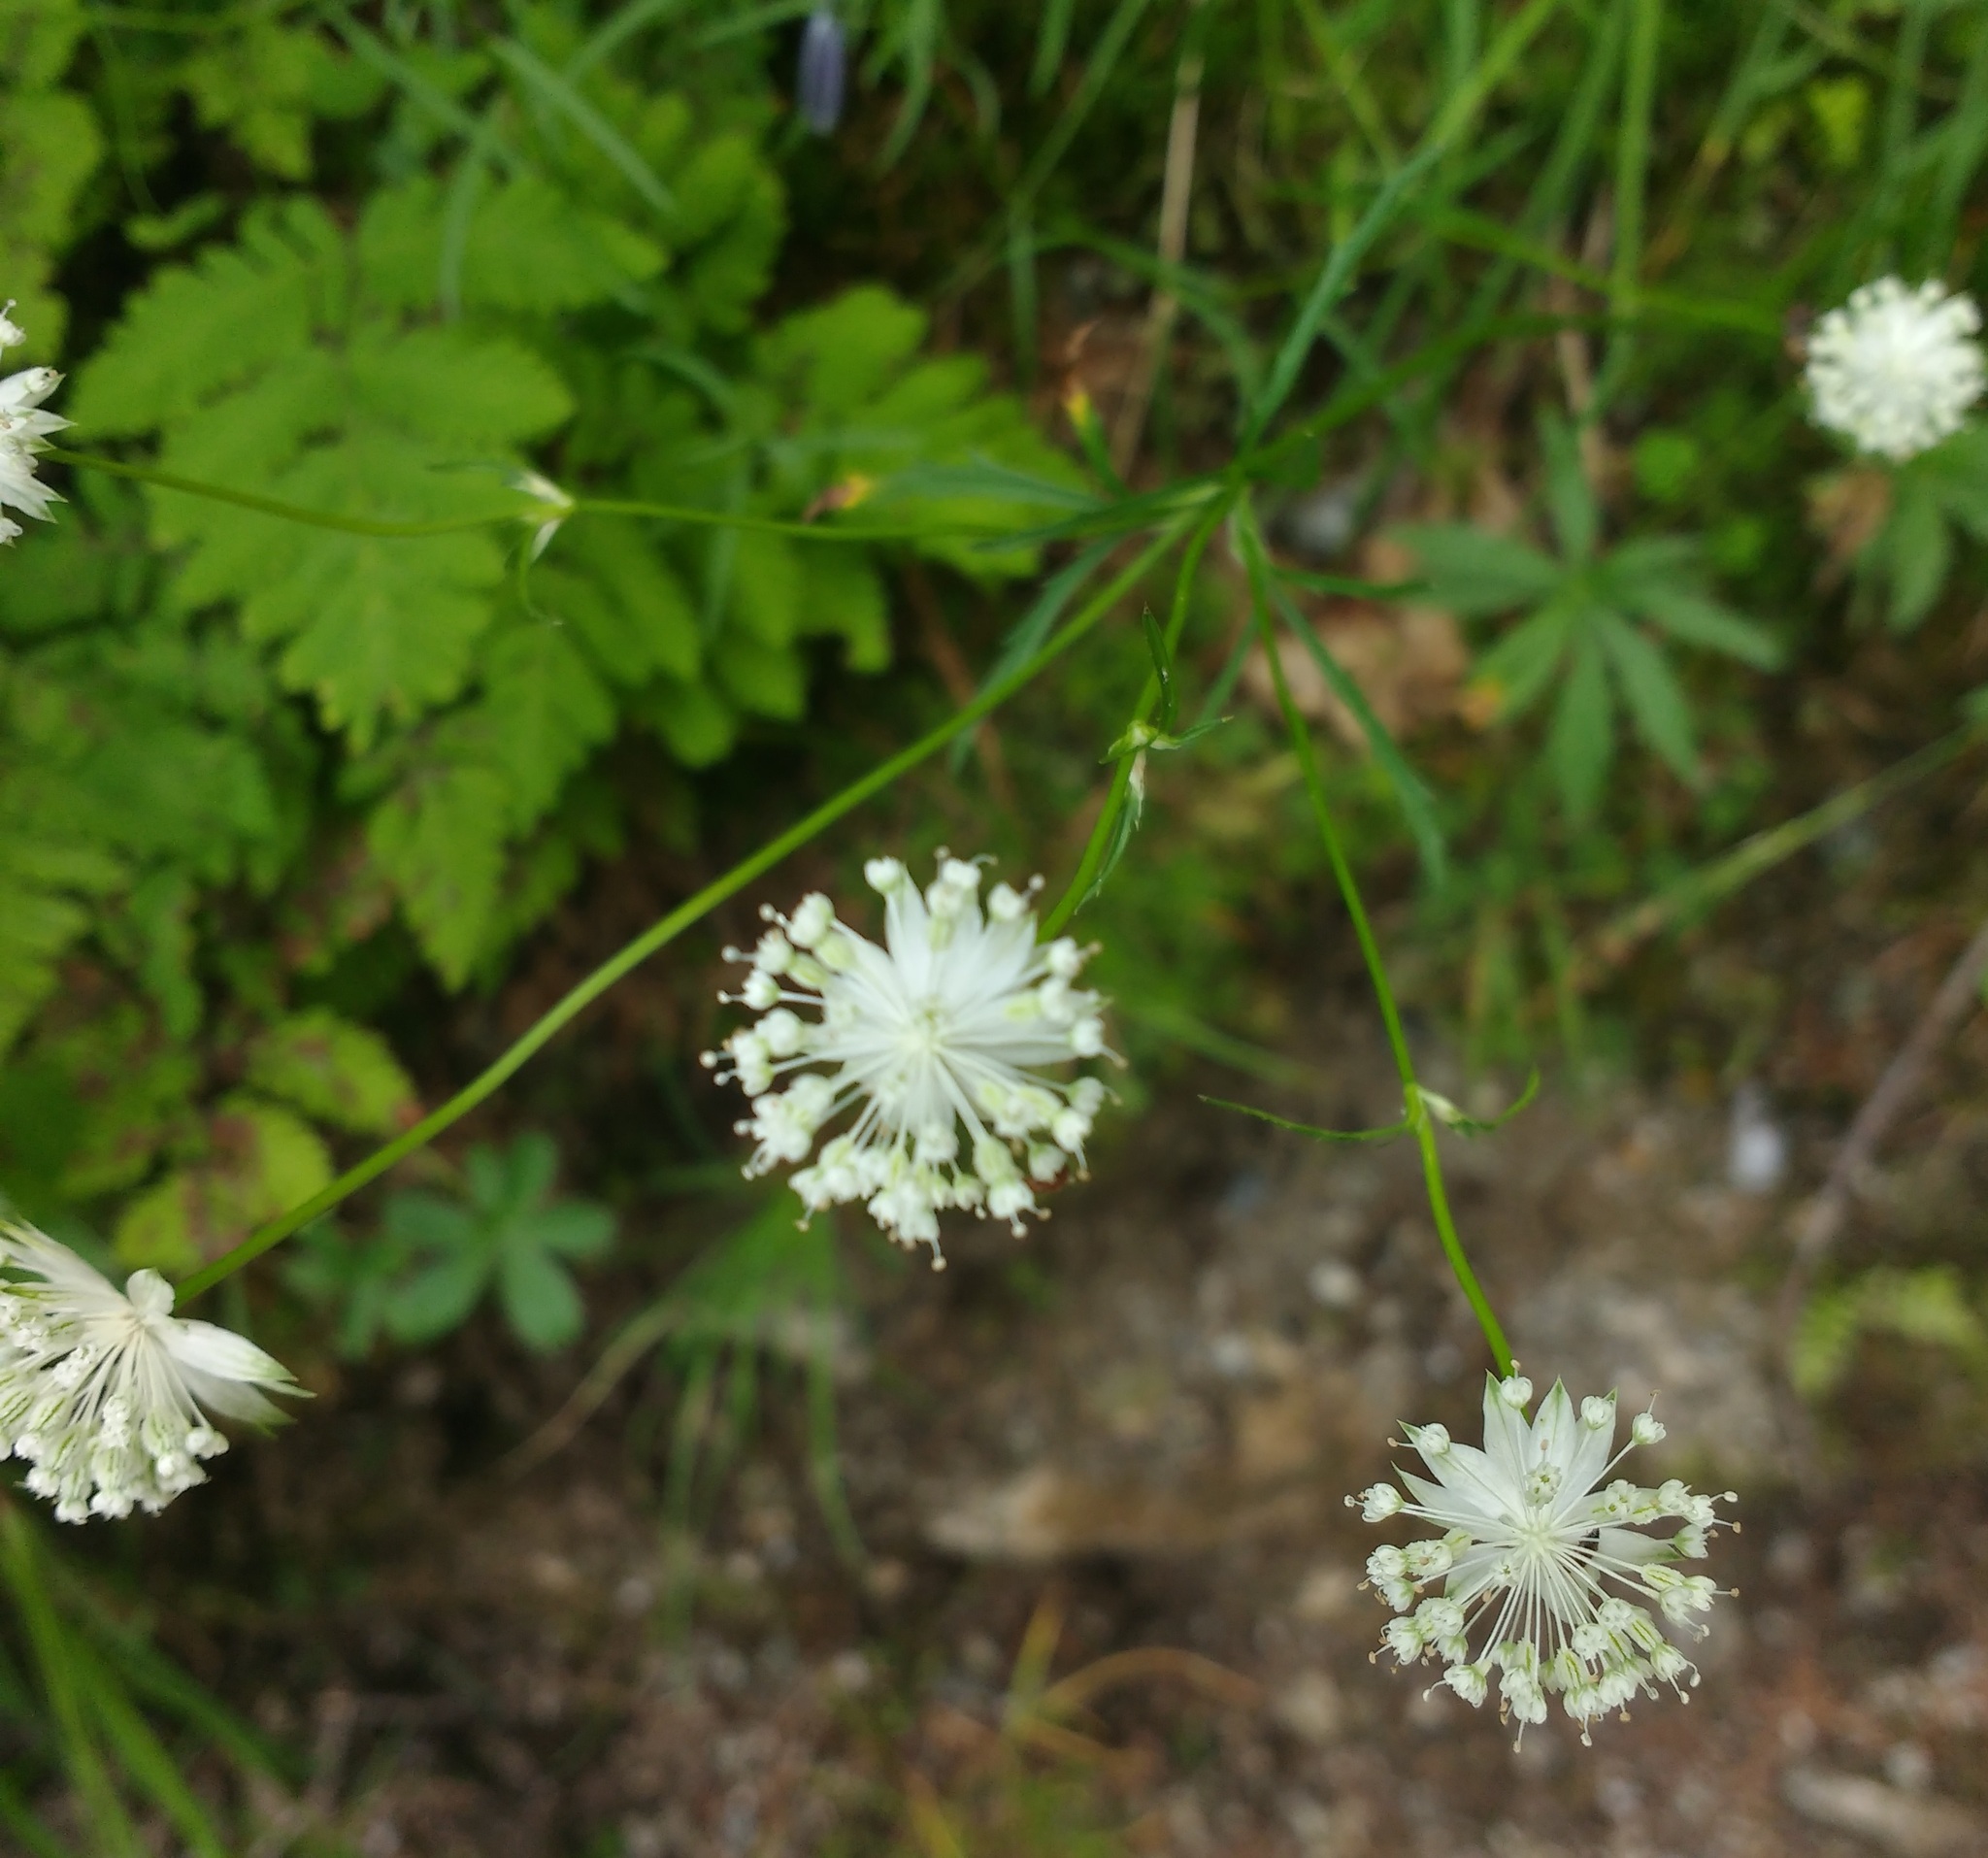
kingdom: Plantae
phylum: Tracheophyta
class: Magnoliopsida
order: Apiales
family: Apiaceae
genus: Astrantia
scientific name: Astrantia minor
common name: Lesser masterwort
